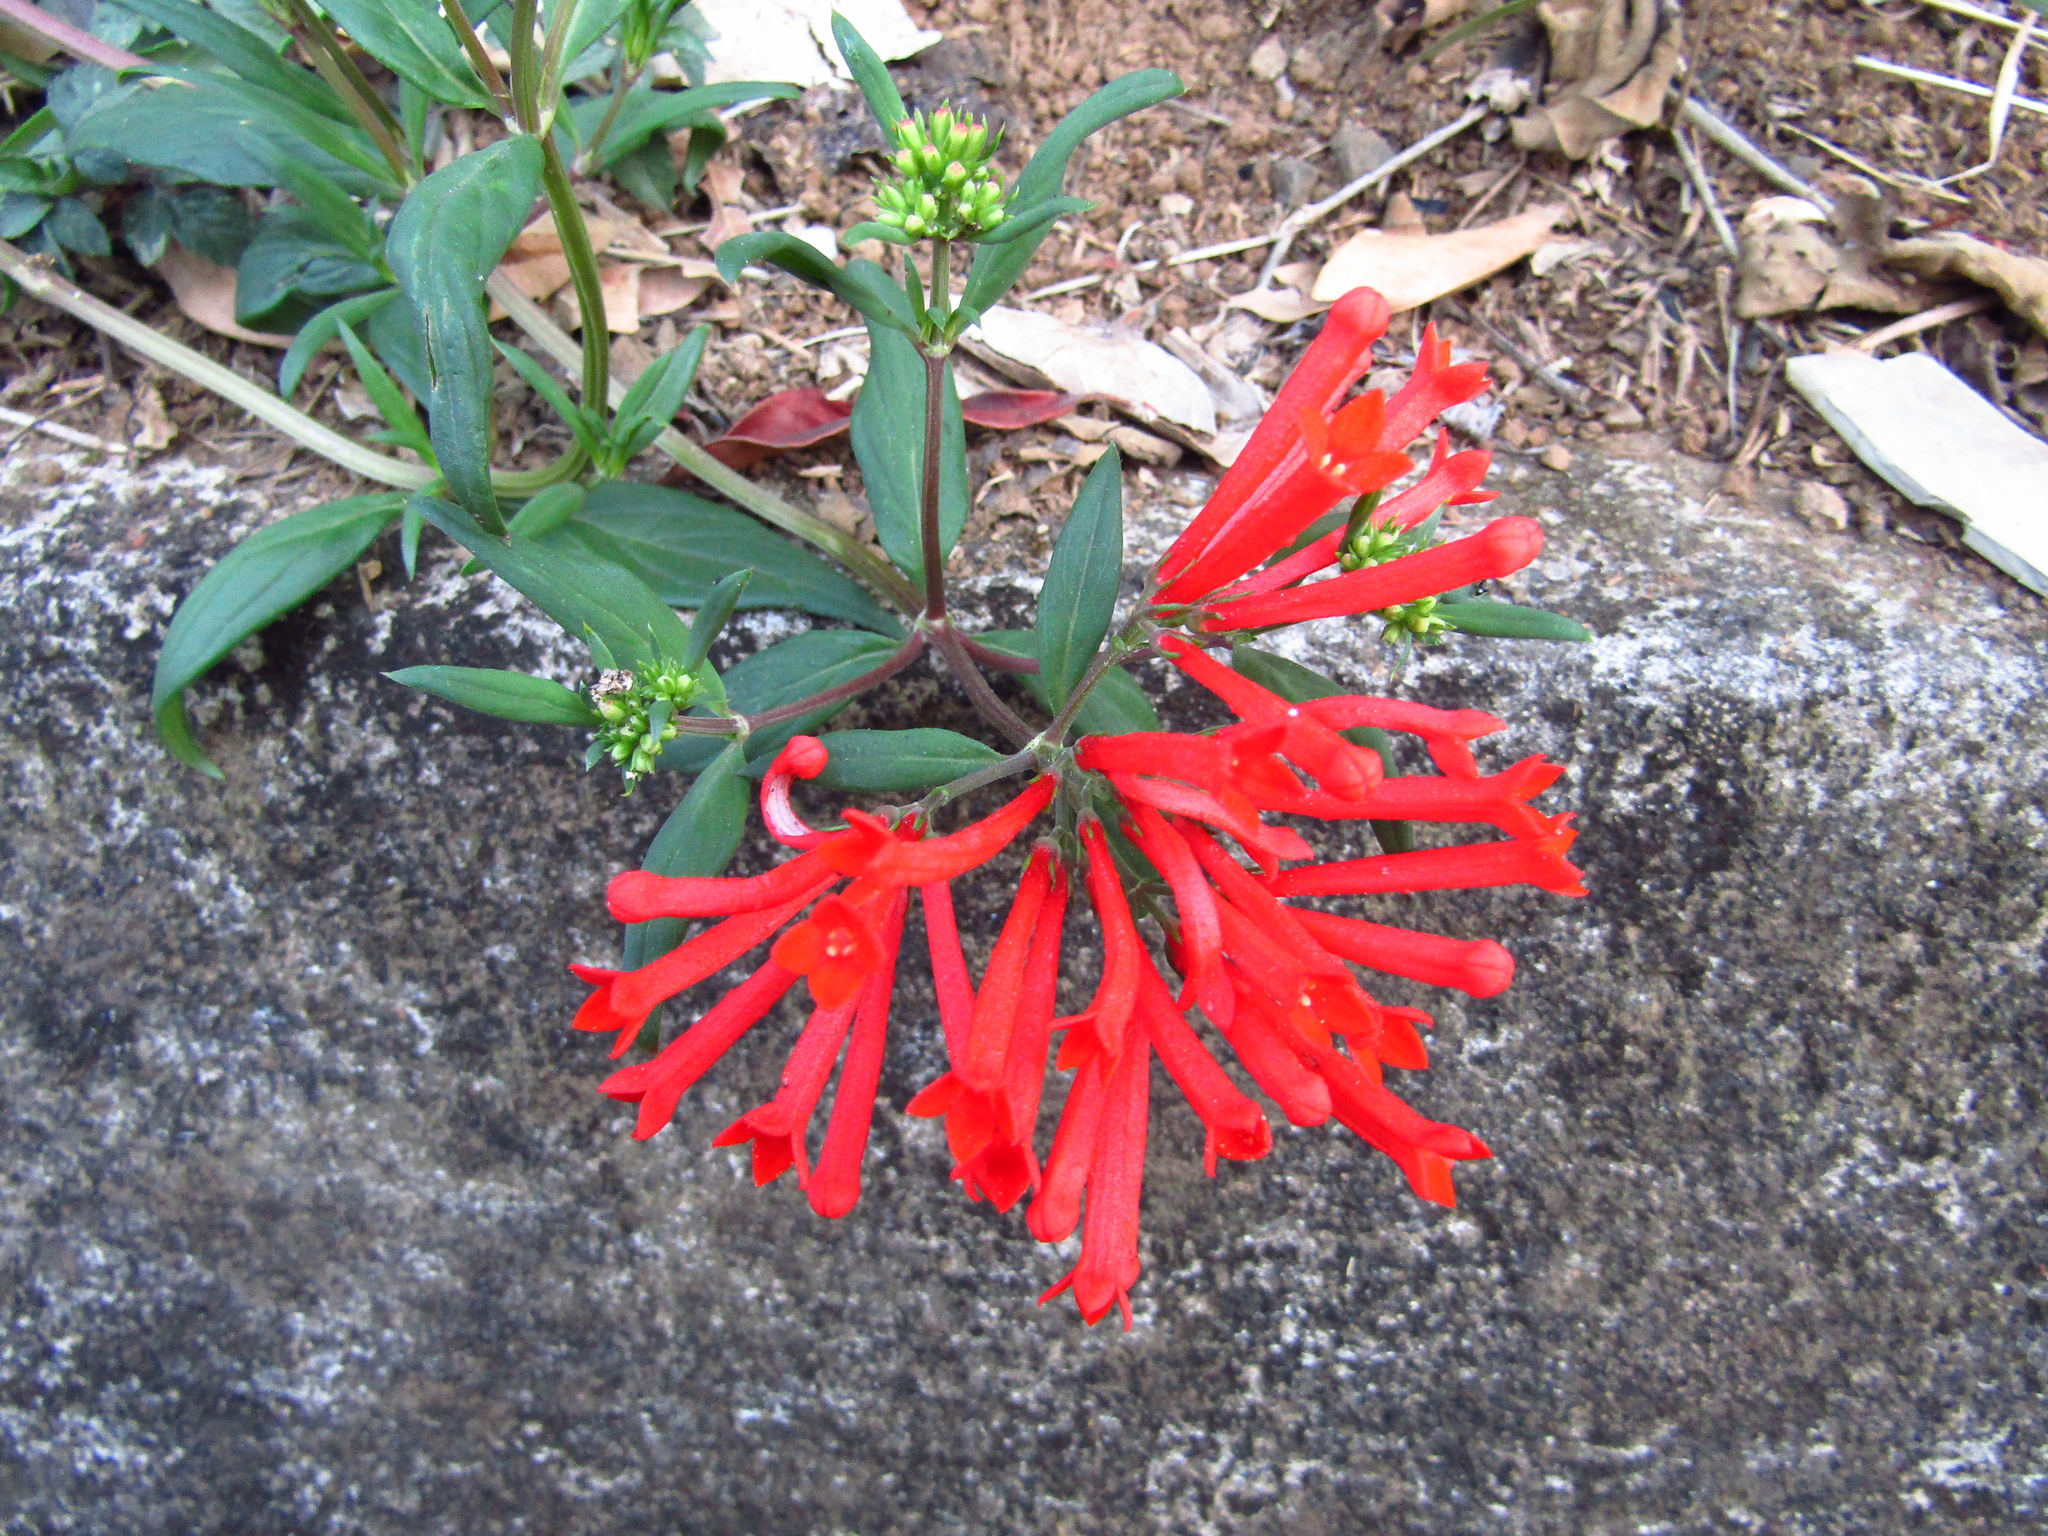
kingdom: Plantae
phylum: Tracheophyta
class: Magnoliopsida
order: Gentianales
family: Rubiaceae
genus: Bouvardia
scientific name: Bouvardia ternifolia
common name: Scarlet bouvardia
